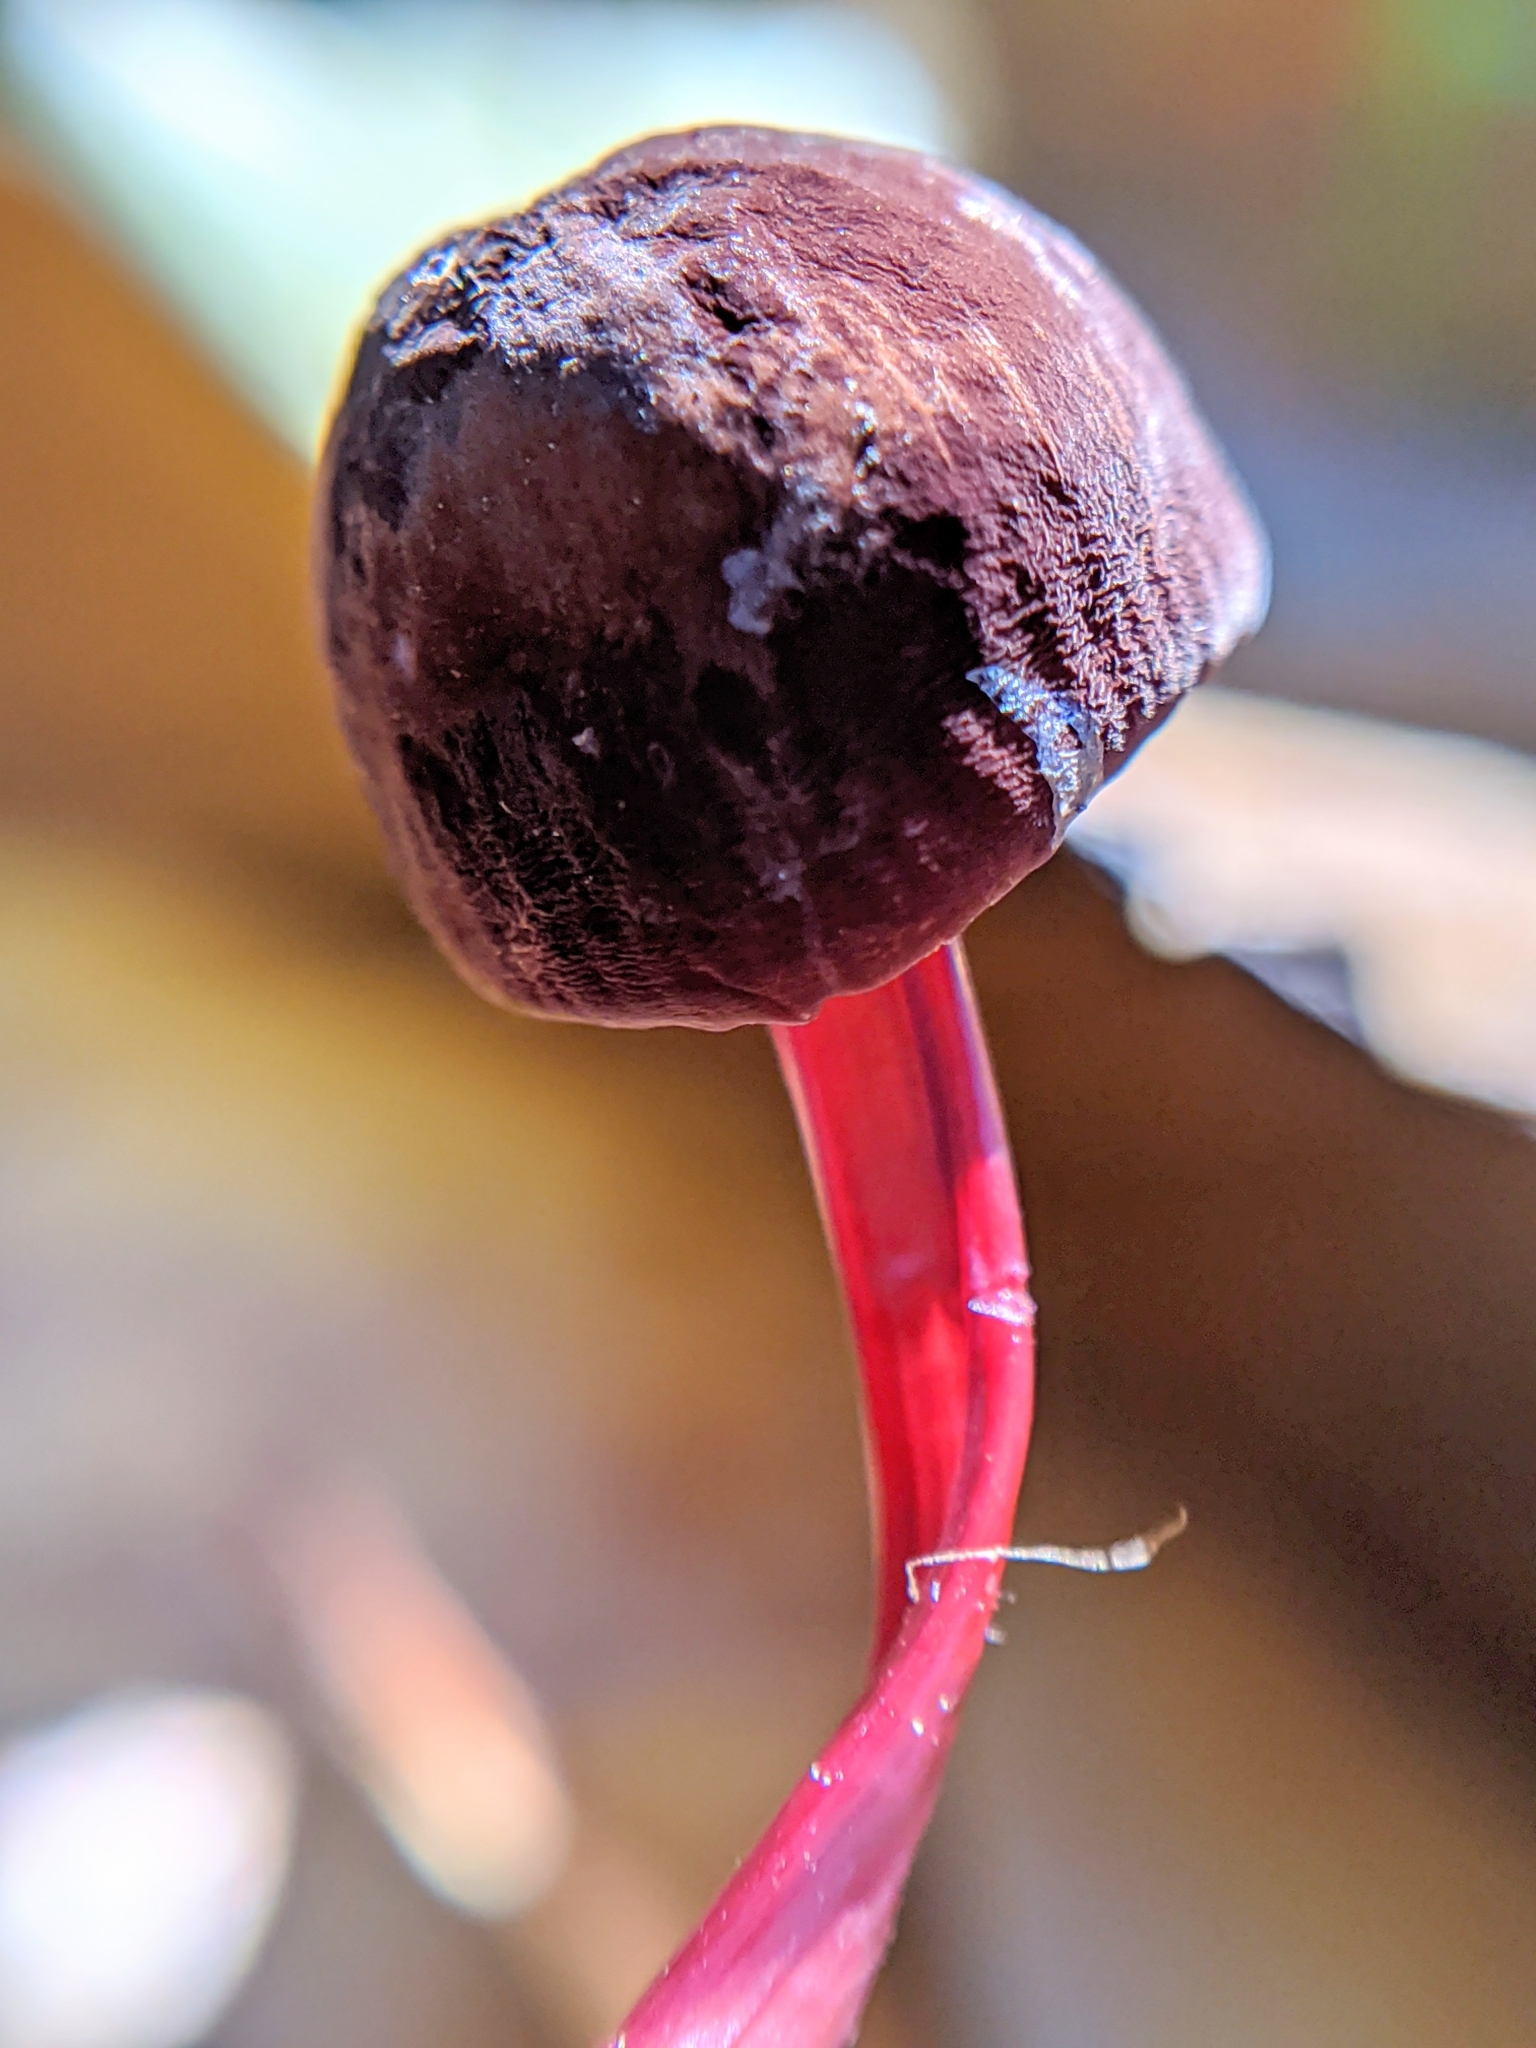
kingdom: Fungi
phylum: Basidiomycota
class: Agaricomycetes
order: Agaricales
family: Marasmiaceae
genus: Marasmius
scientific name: Marasmius plicatulus
